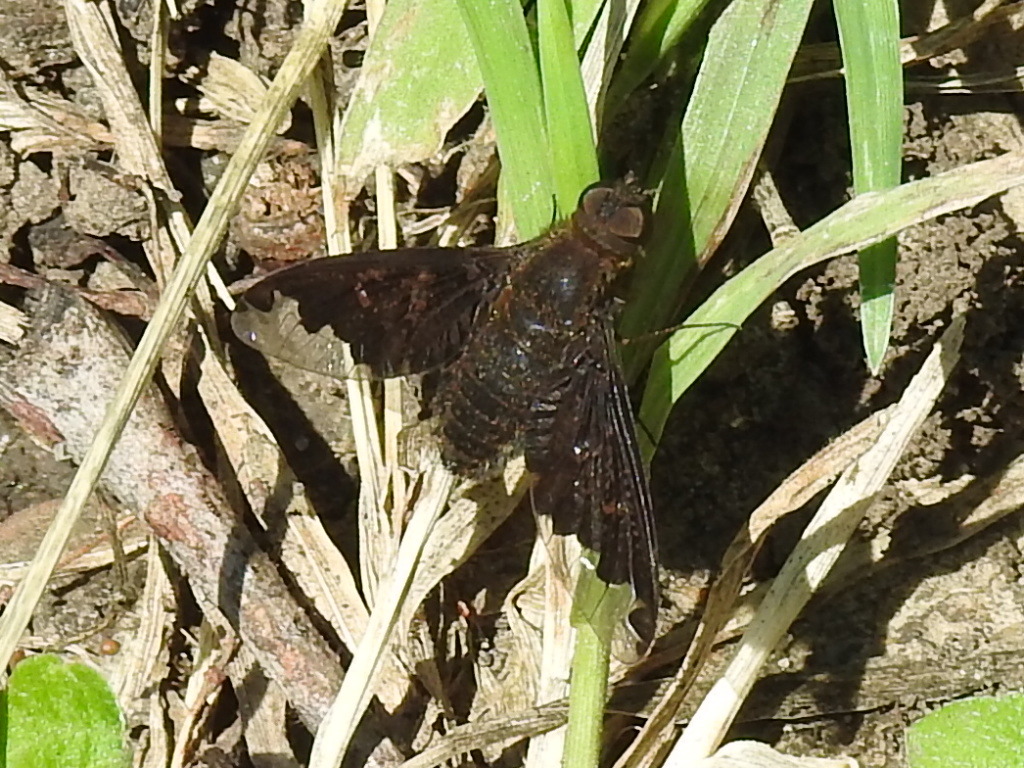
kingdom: Animalia
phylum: Arthropoda
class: Insecta
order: Diptera
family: Bombyliidae
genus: Hemipenthes
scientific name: Hemipenthes sinuosus
